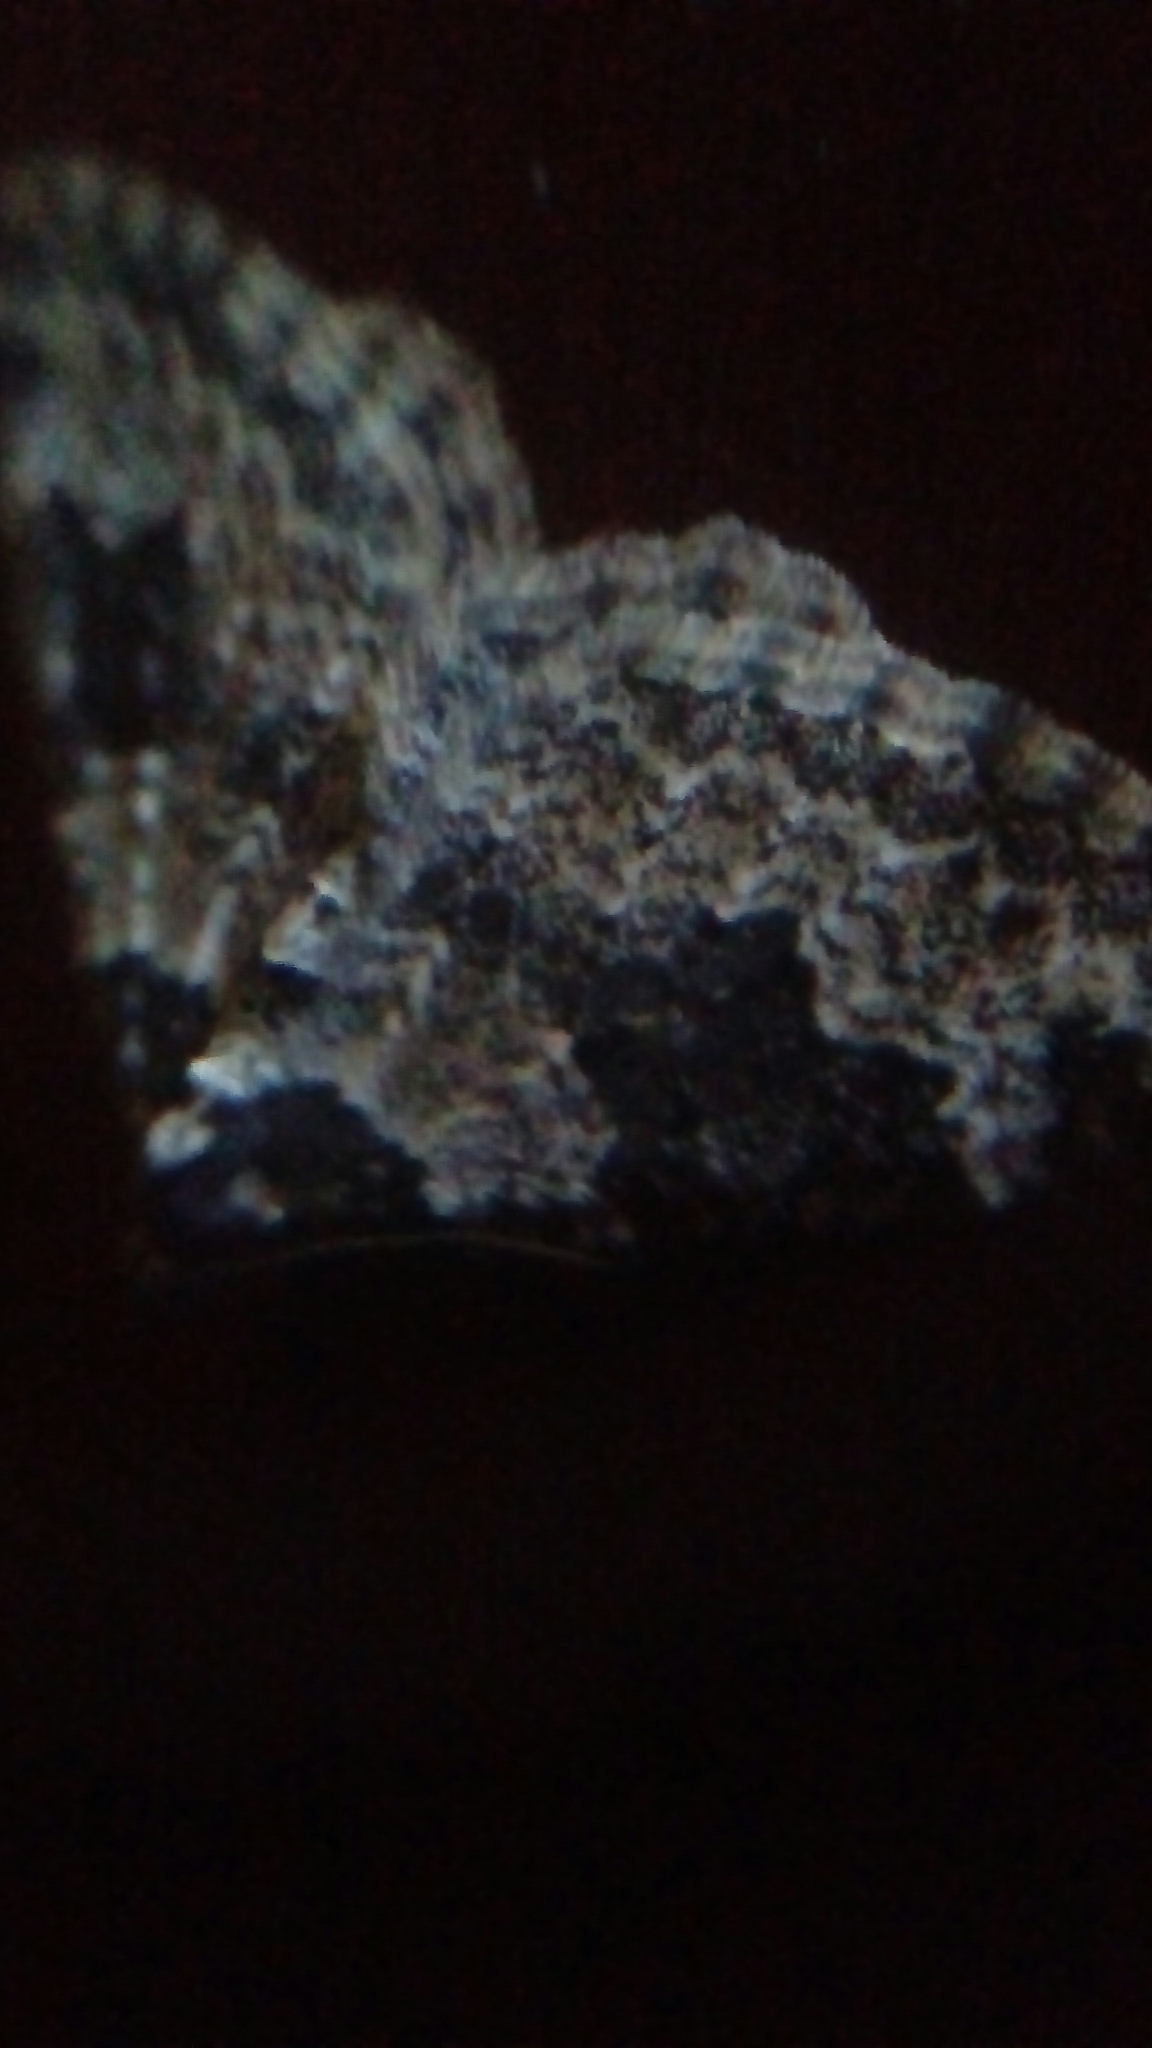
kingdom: Animalia
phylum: Arthropoda
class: Insecta
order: Lepidoptera
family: Geometridae
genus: Xanthorhoe
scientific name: Xanthorhoe fluctuata
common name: Garden carpet
